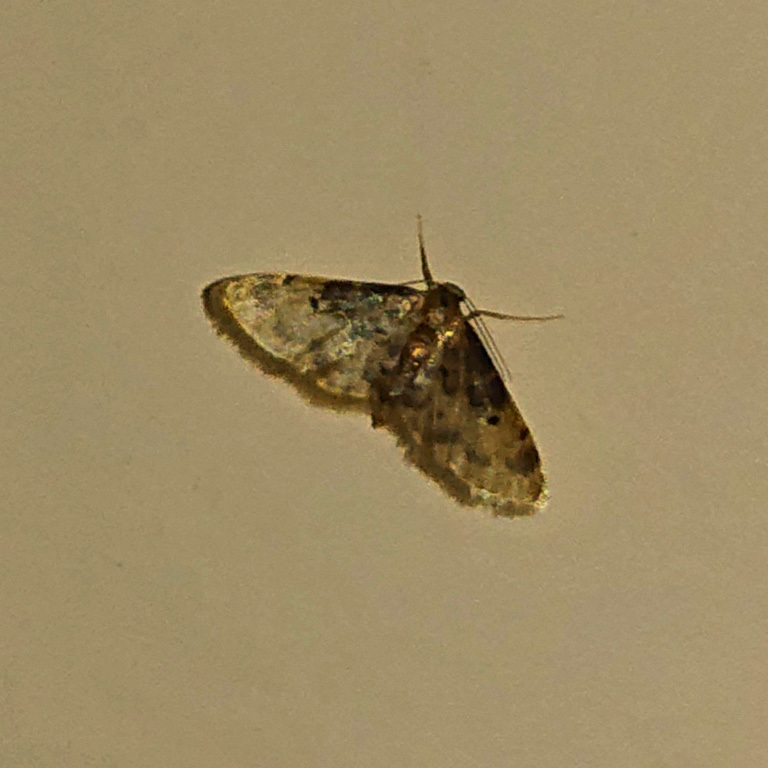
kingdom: Animalia
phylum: Arthropoda
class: Insecta
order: Lepidoptera
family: Geometridae
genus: Idaea
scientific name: Idaea filicata
